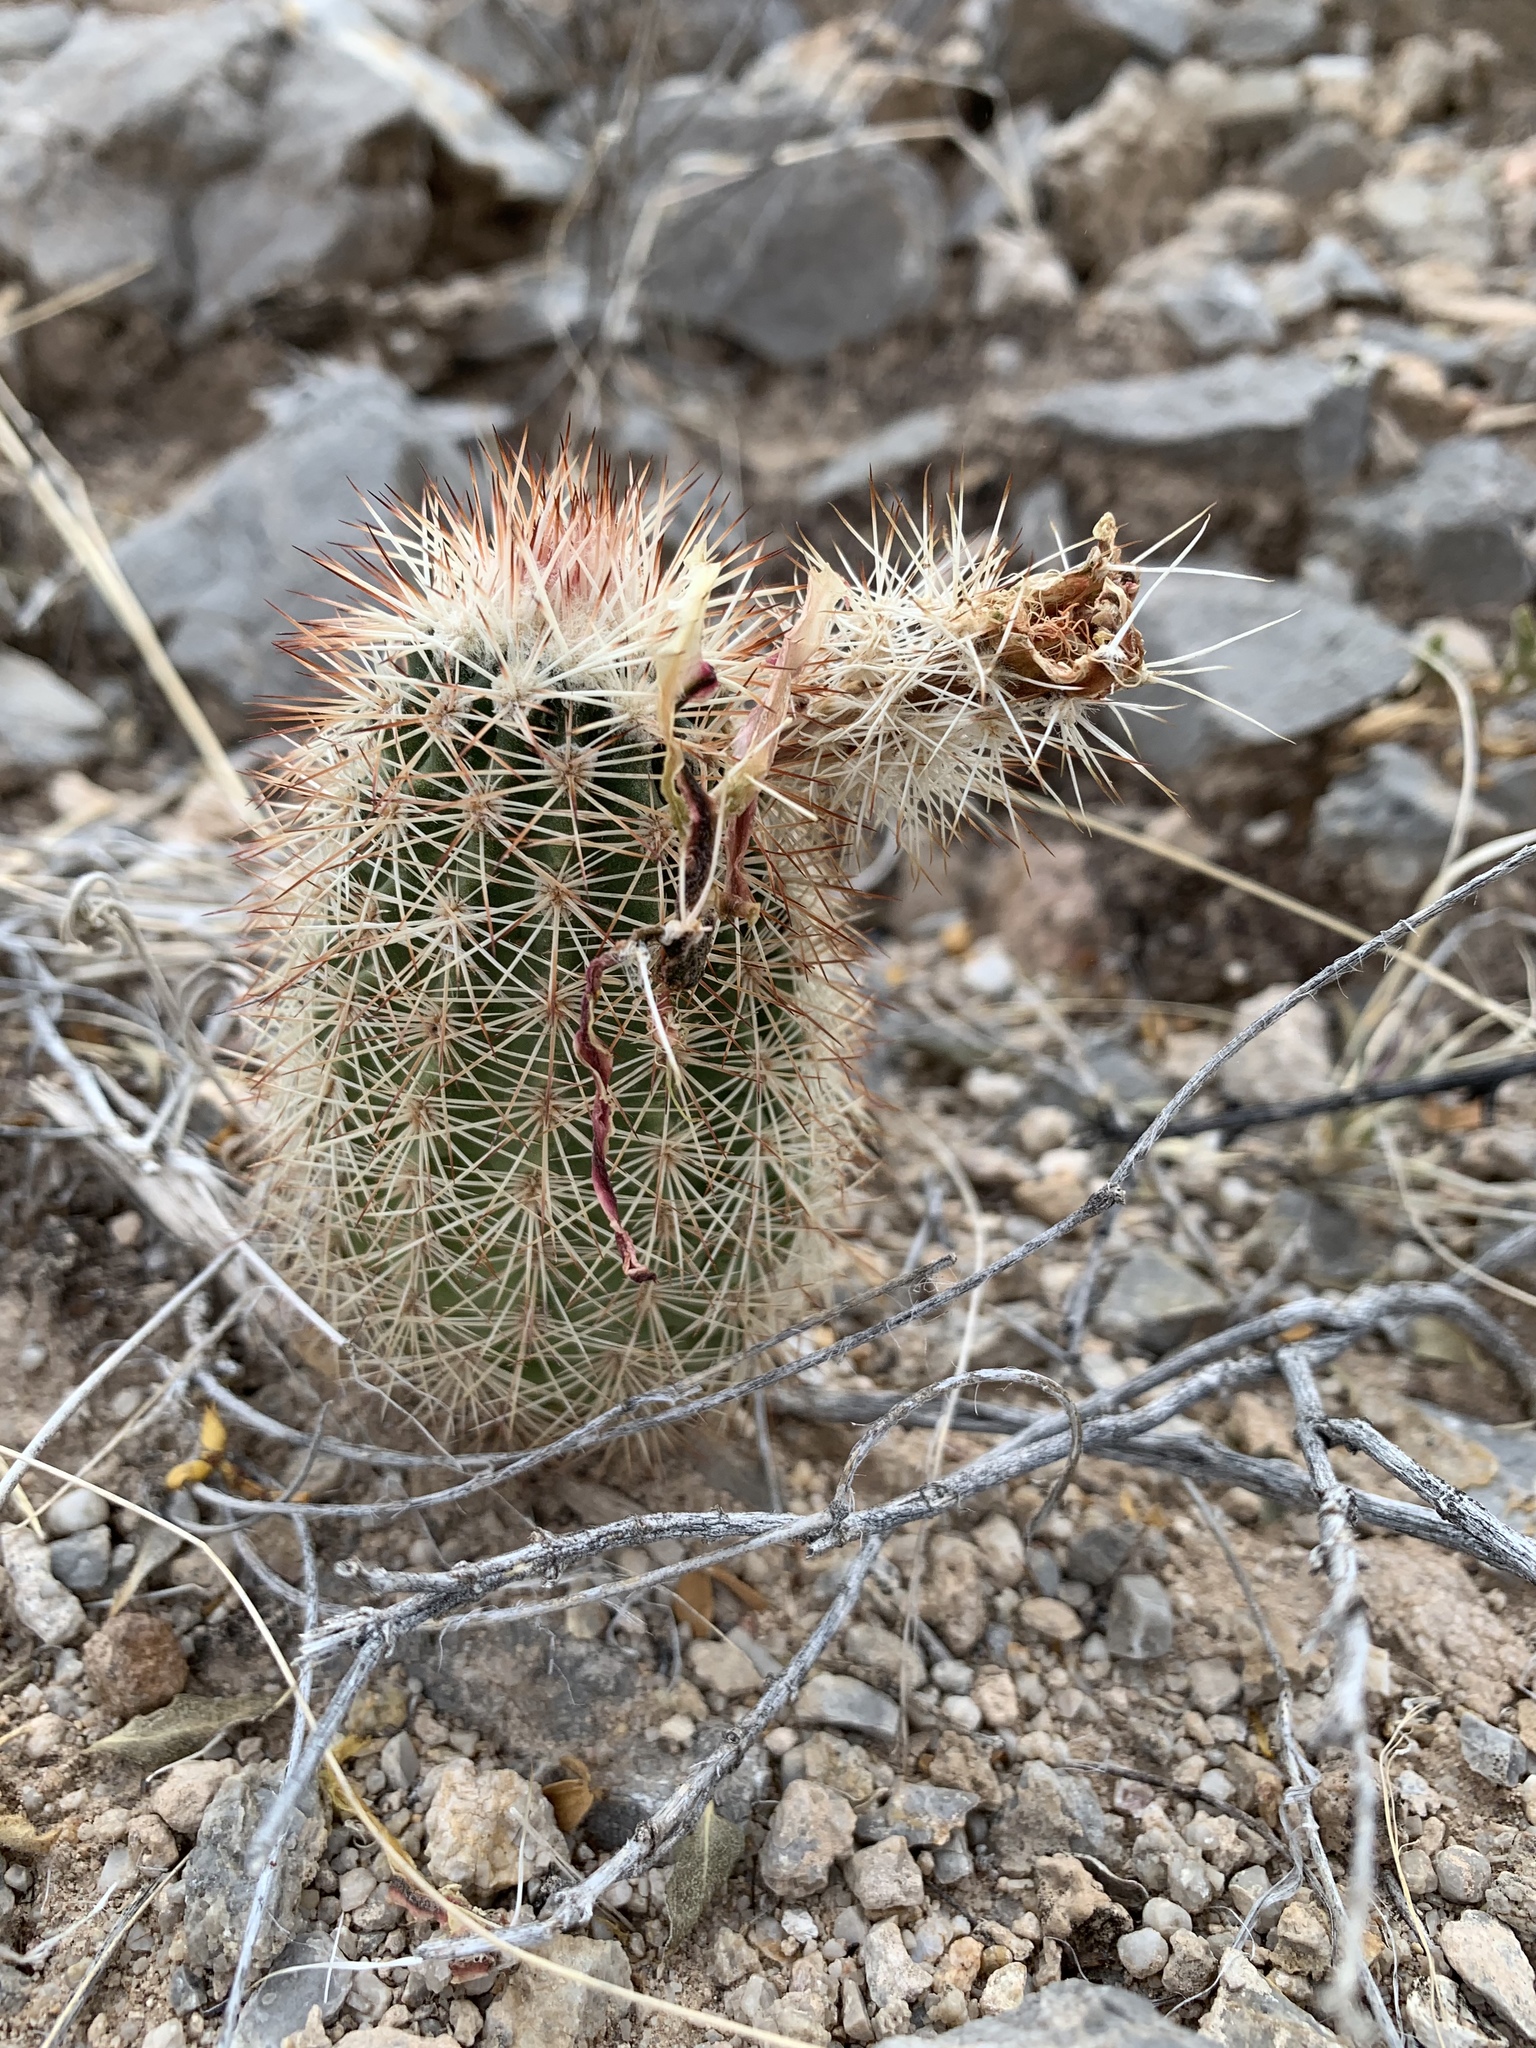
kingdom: Plantae
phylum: Tracheophyta
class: Magnoliopsida
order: Caryophyllales
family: Cactaceae
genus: Echinocereus
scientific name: Echinocereus dasyacanthus
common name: Spiny hedgehog cactus
